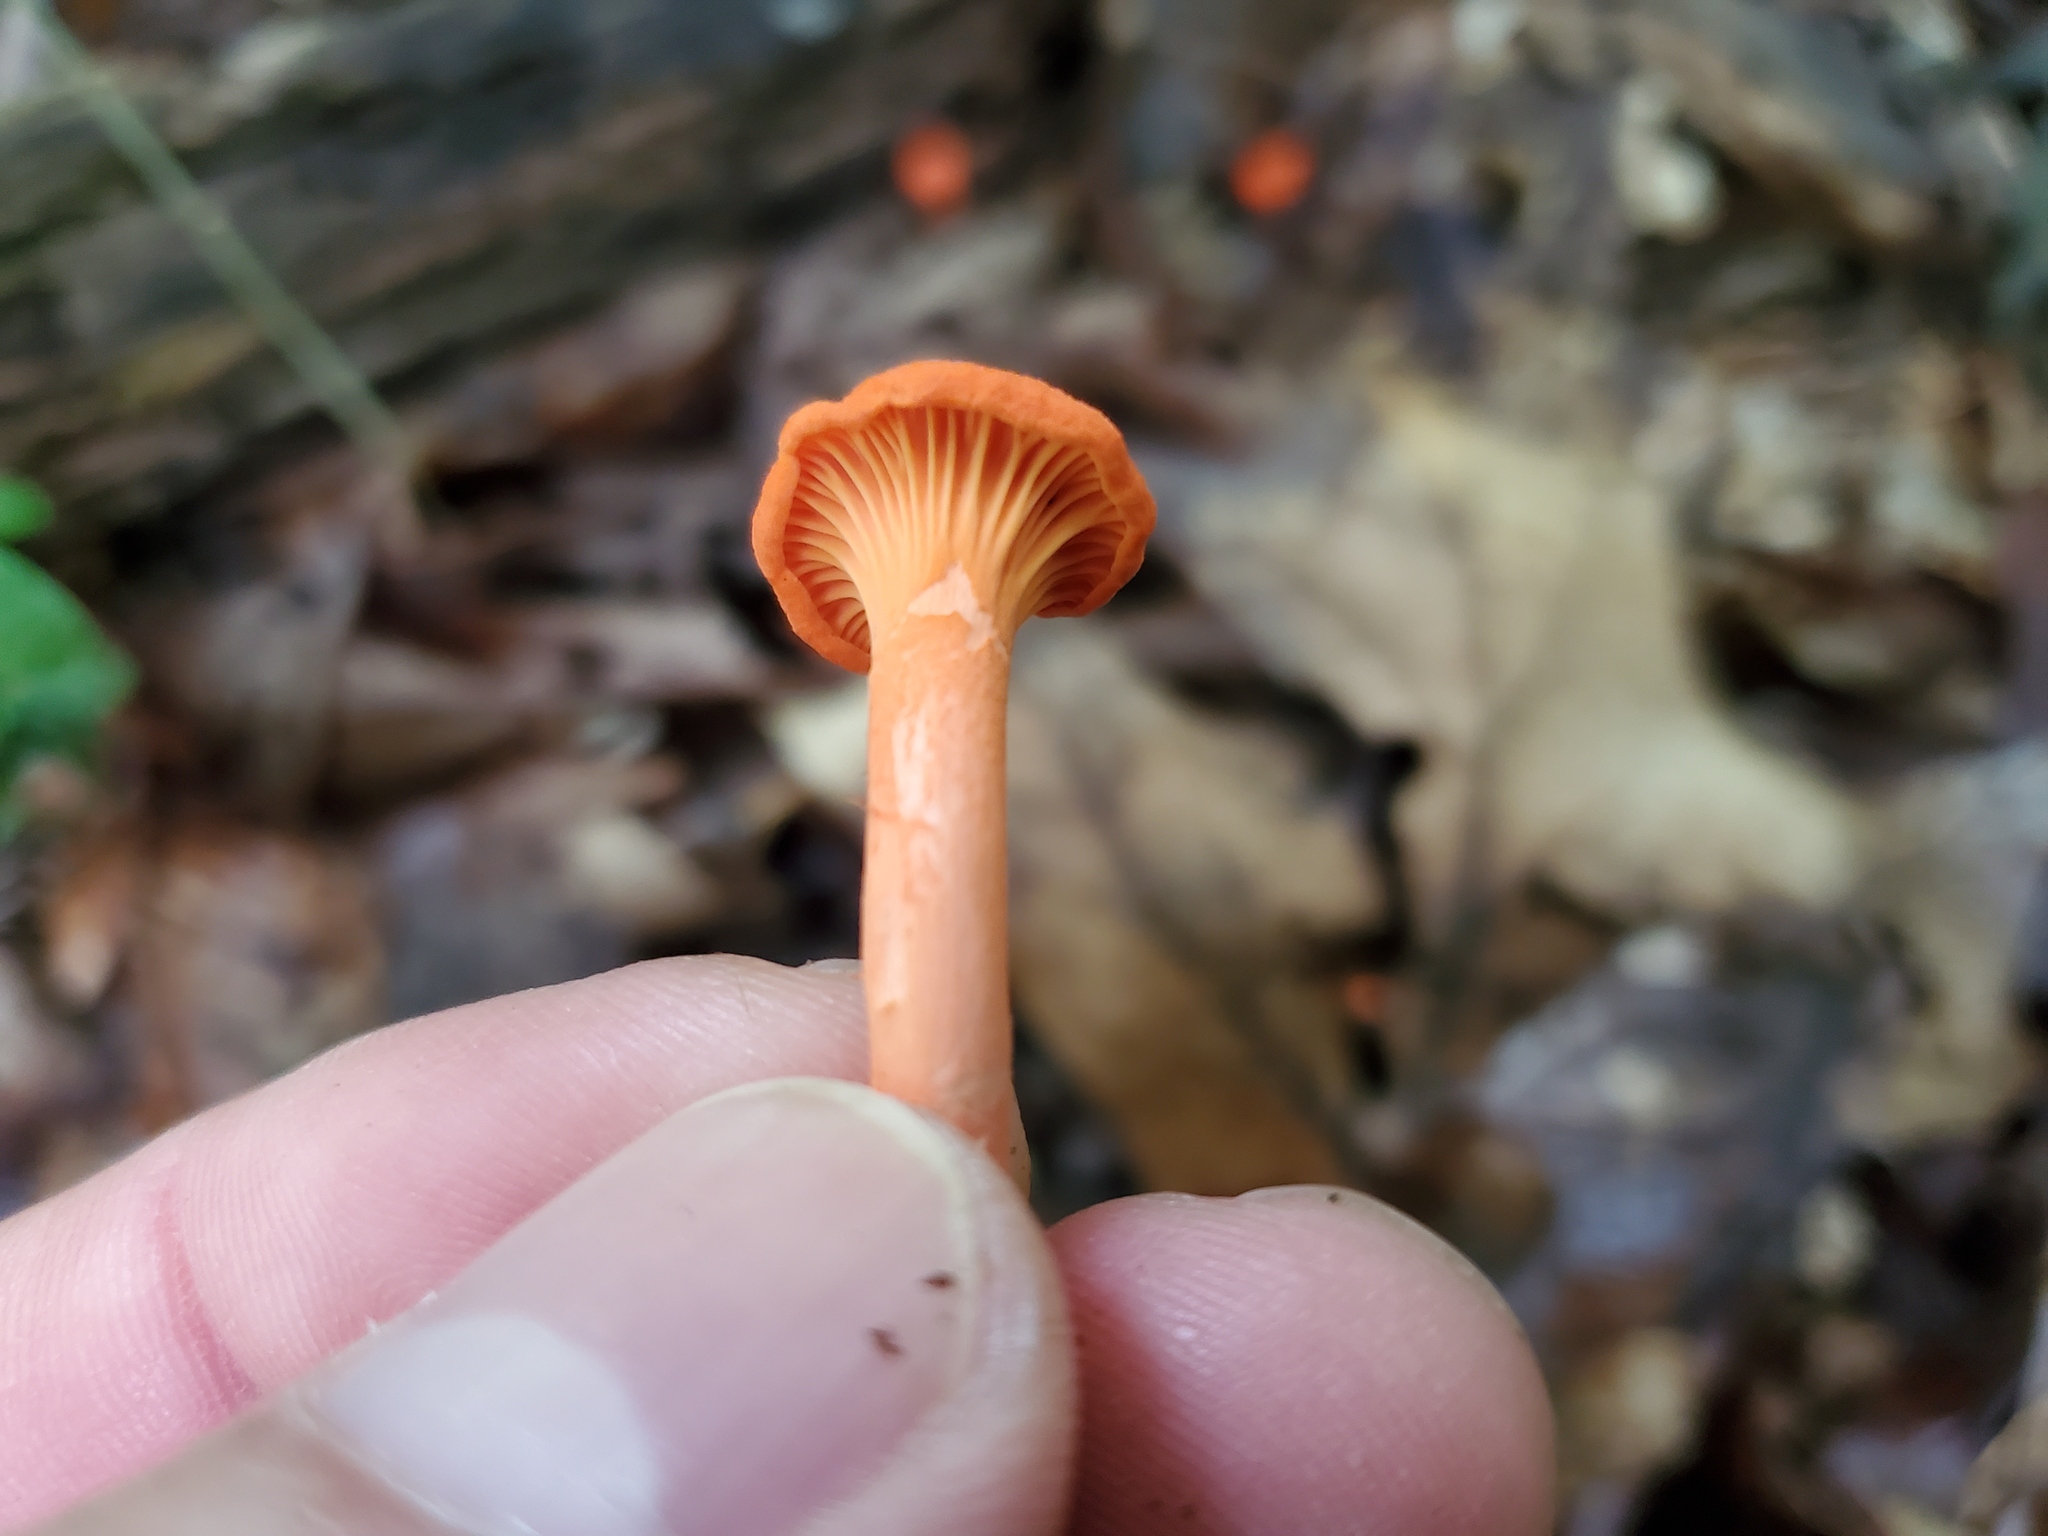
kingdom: Fungi
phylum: Basidiomycota
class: Agaricomycetes
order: Cantharellales
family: Hydnaceae
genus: Cantharellus
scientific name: Cantharellus cinnabarinus
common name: Cinnabar chanterelle
